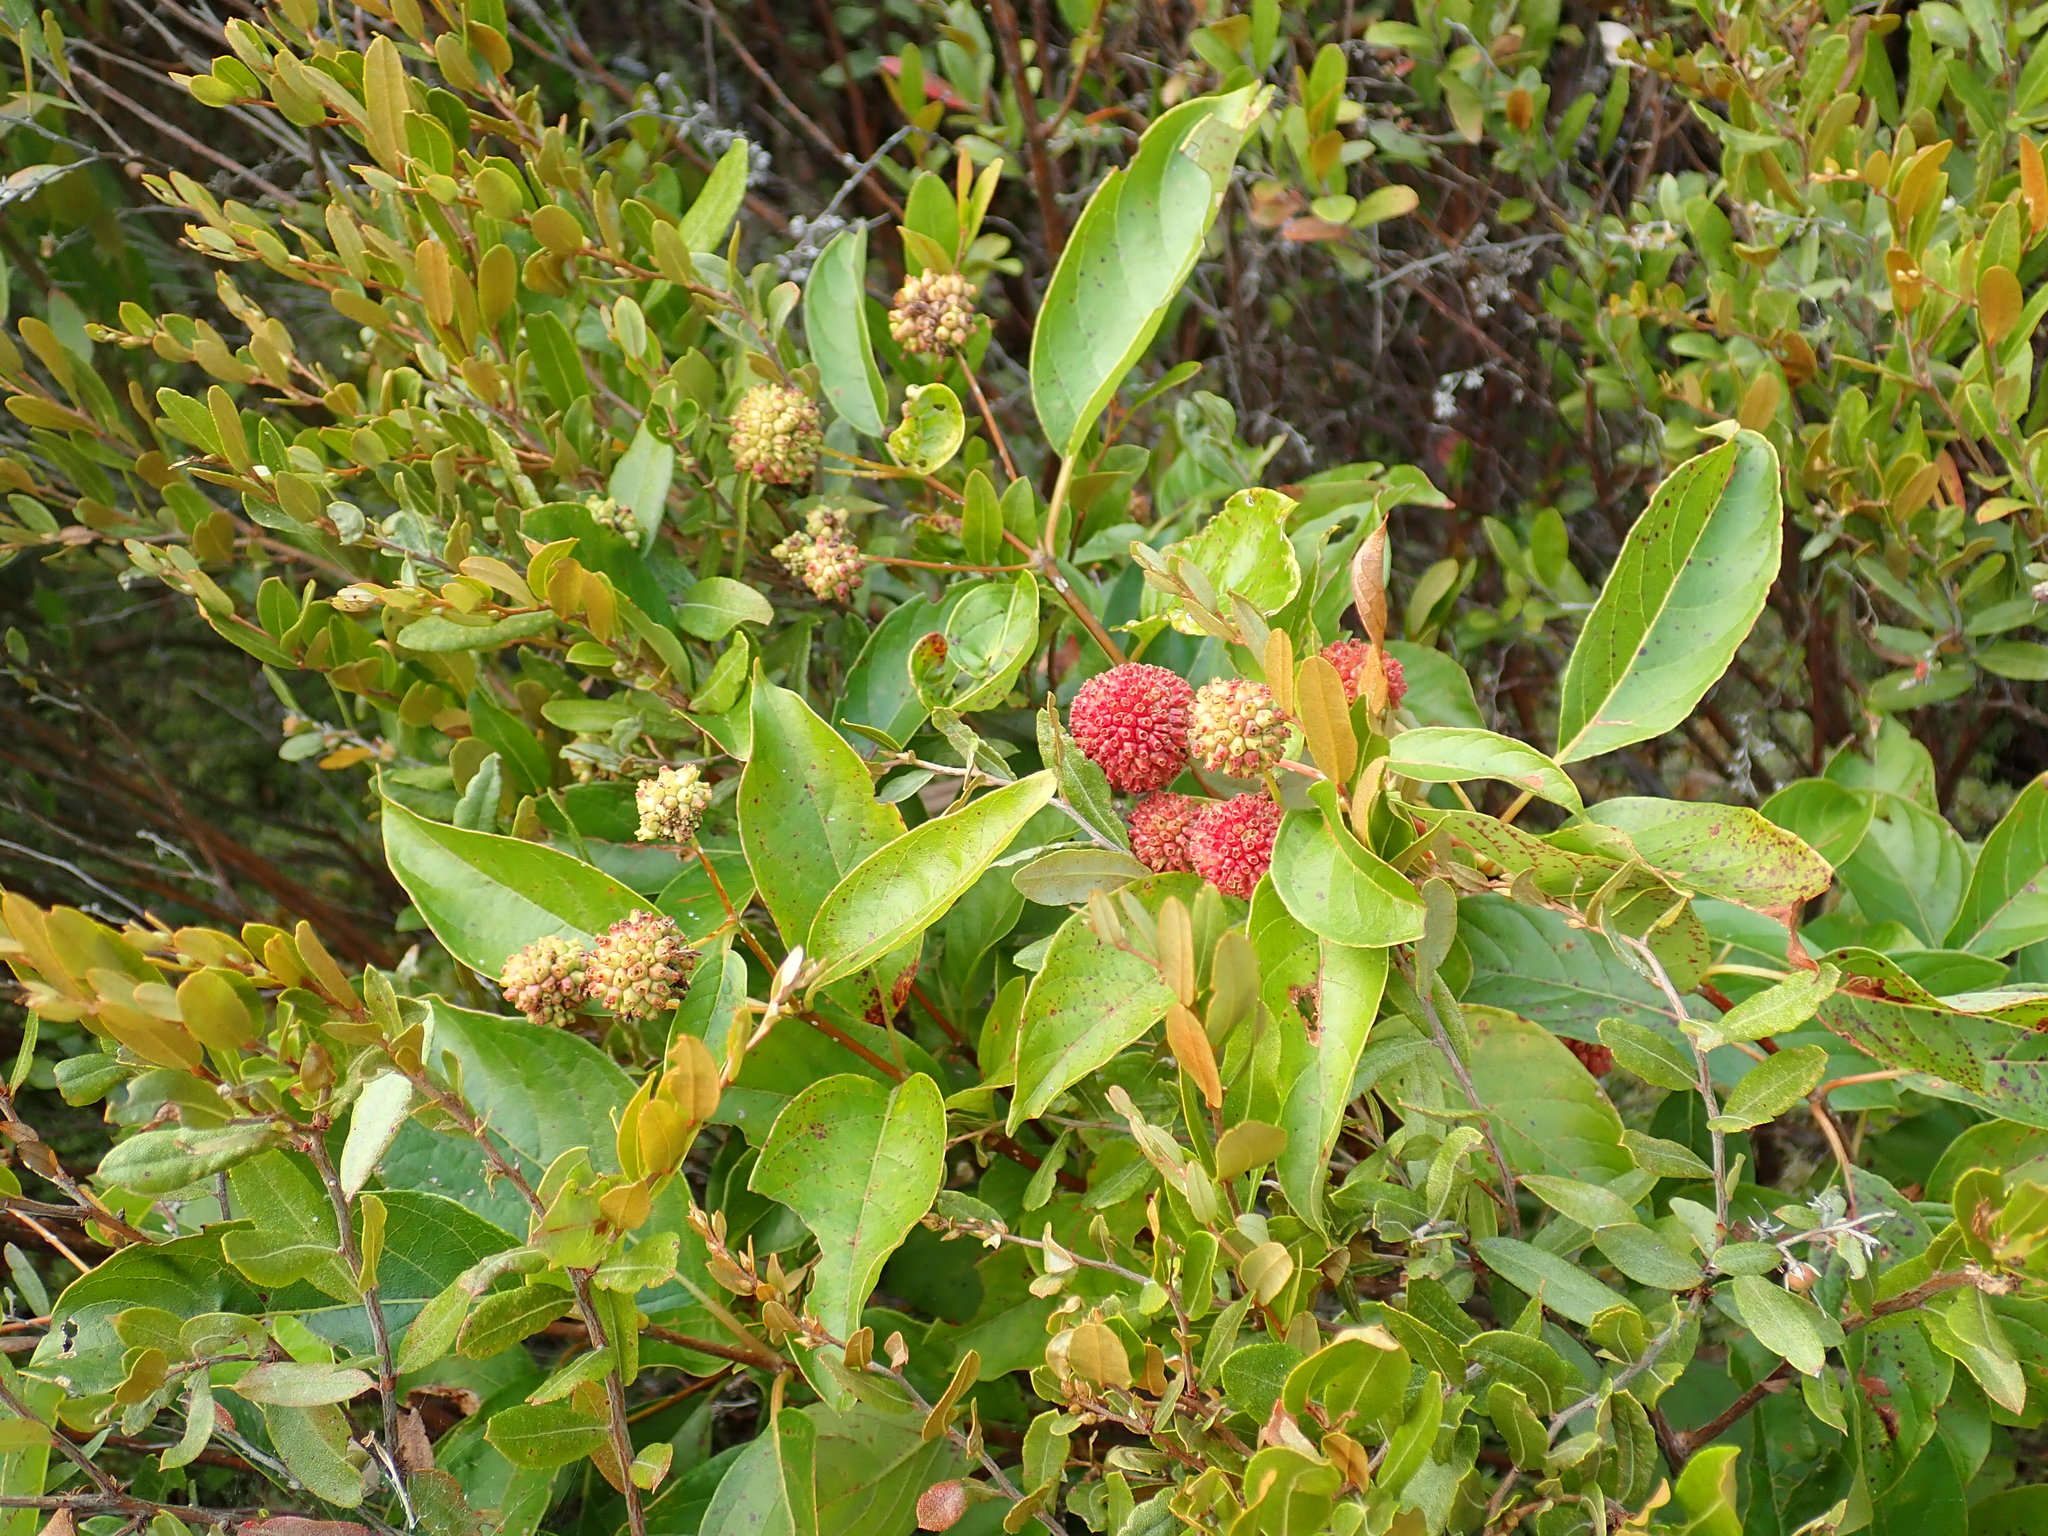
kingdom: Plantae
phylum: Tracheophyta
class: Magnoliopsida
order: Gentianales
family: Rubiaceae
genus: Cephalanthus
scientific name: Cephalanthus occidentalis
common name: Button-willow
